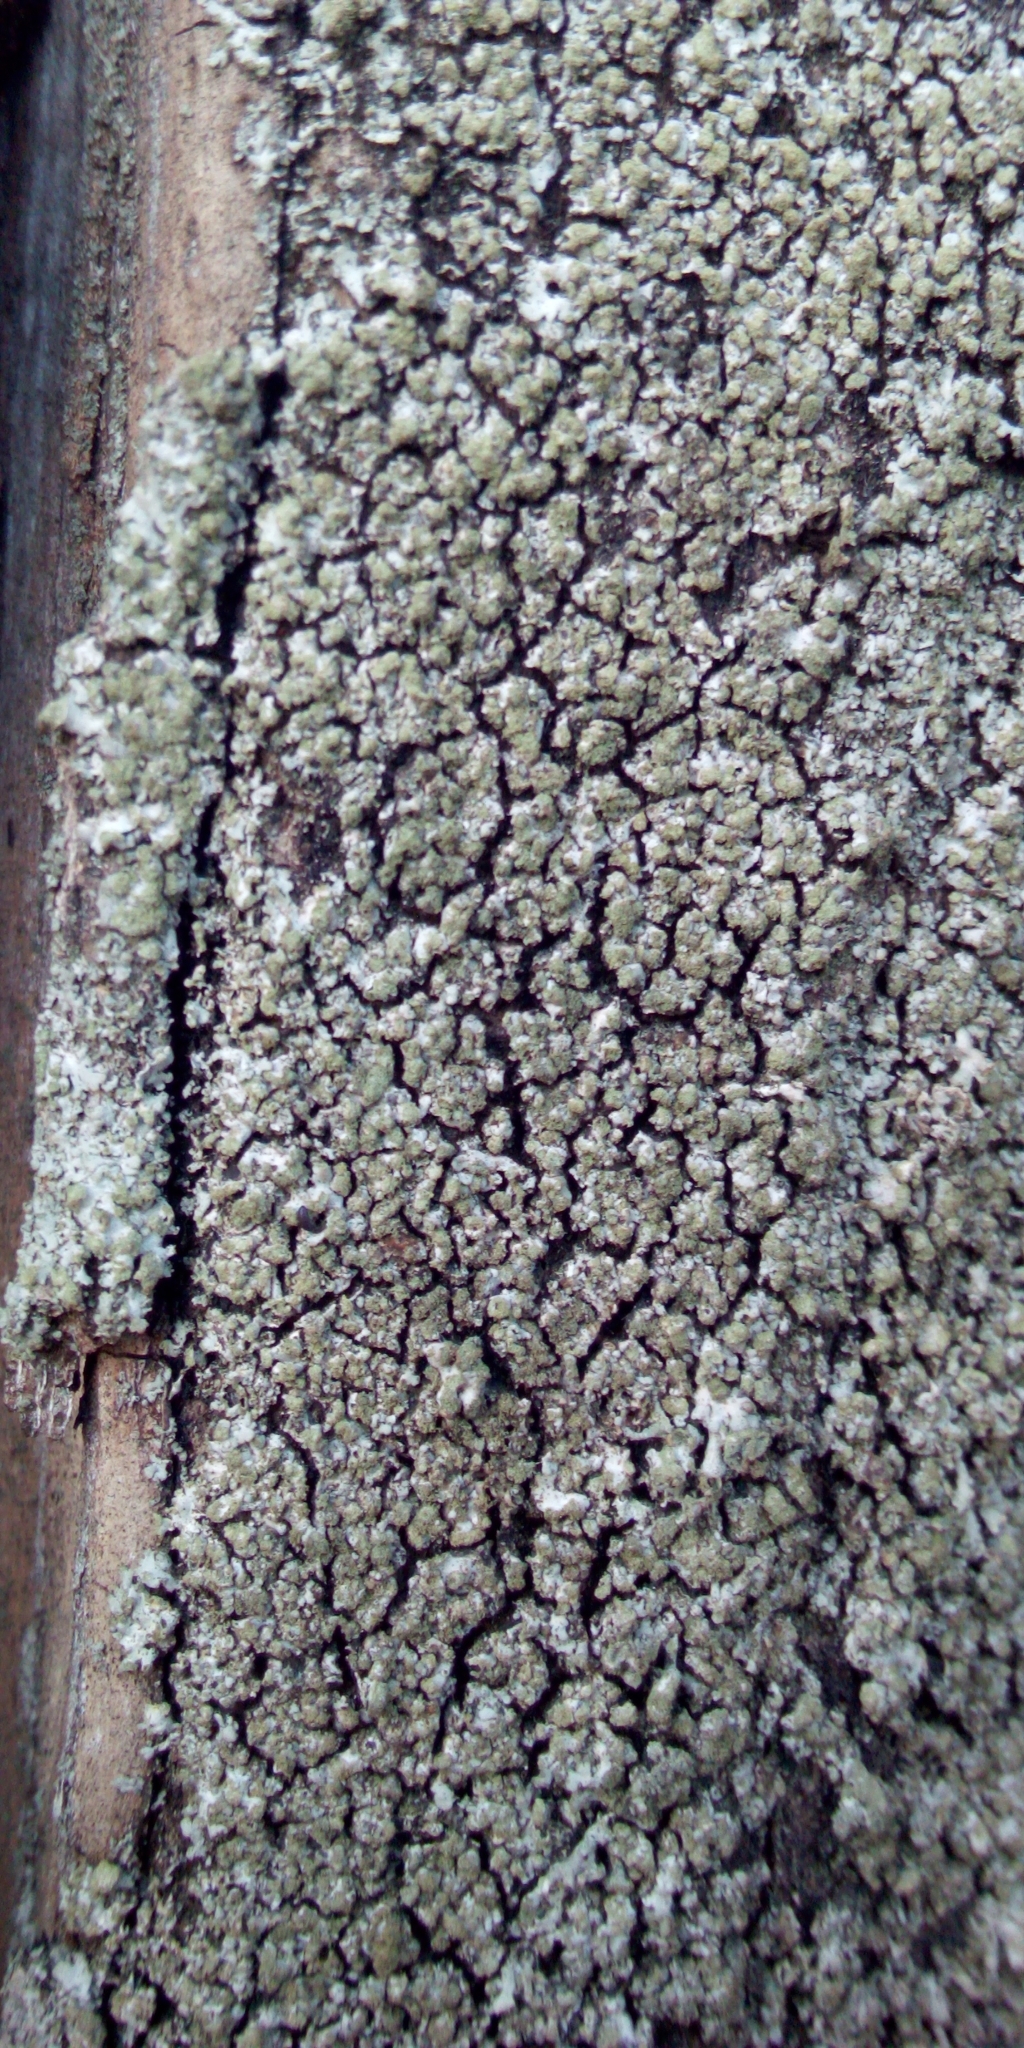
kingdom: Fungi
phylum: Ascomycota
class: Lecanoromycetes
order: Caliciales
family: Physciaceae
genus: Phaeophyscia
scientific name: Phaeophyscia orbicularis
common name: Mealy shadow lichen
